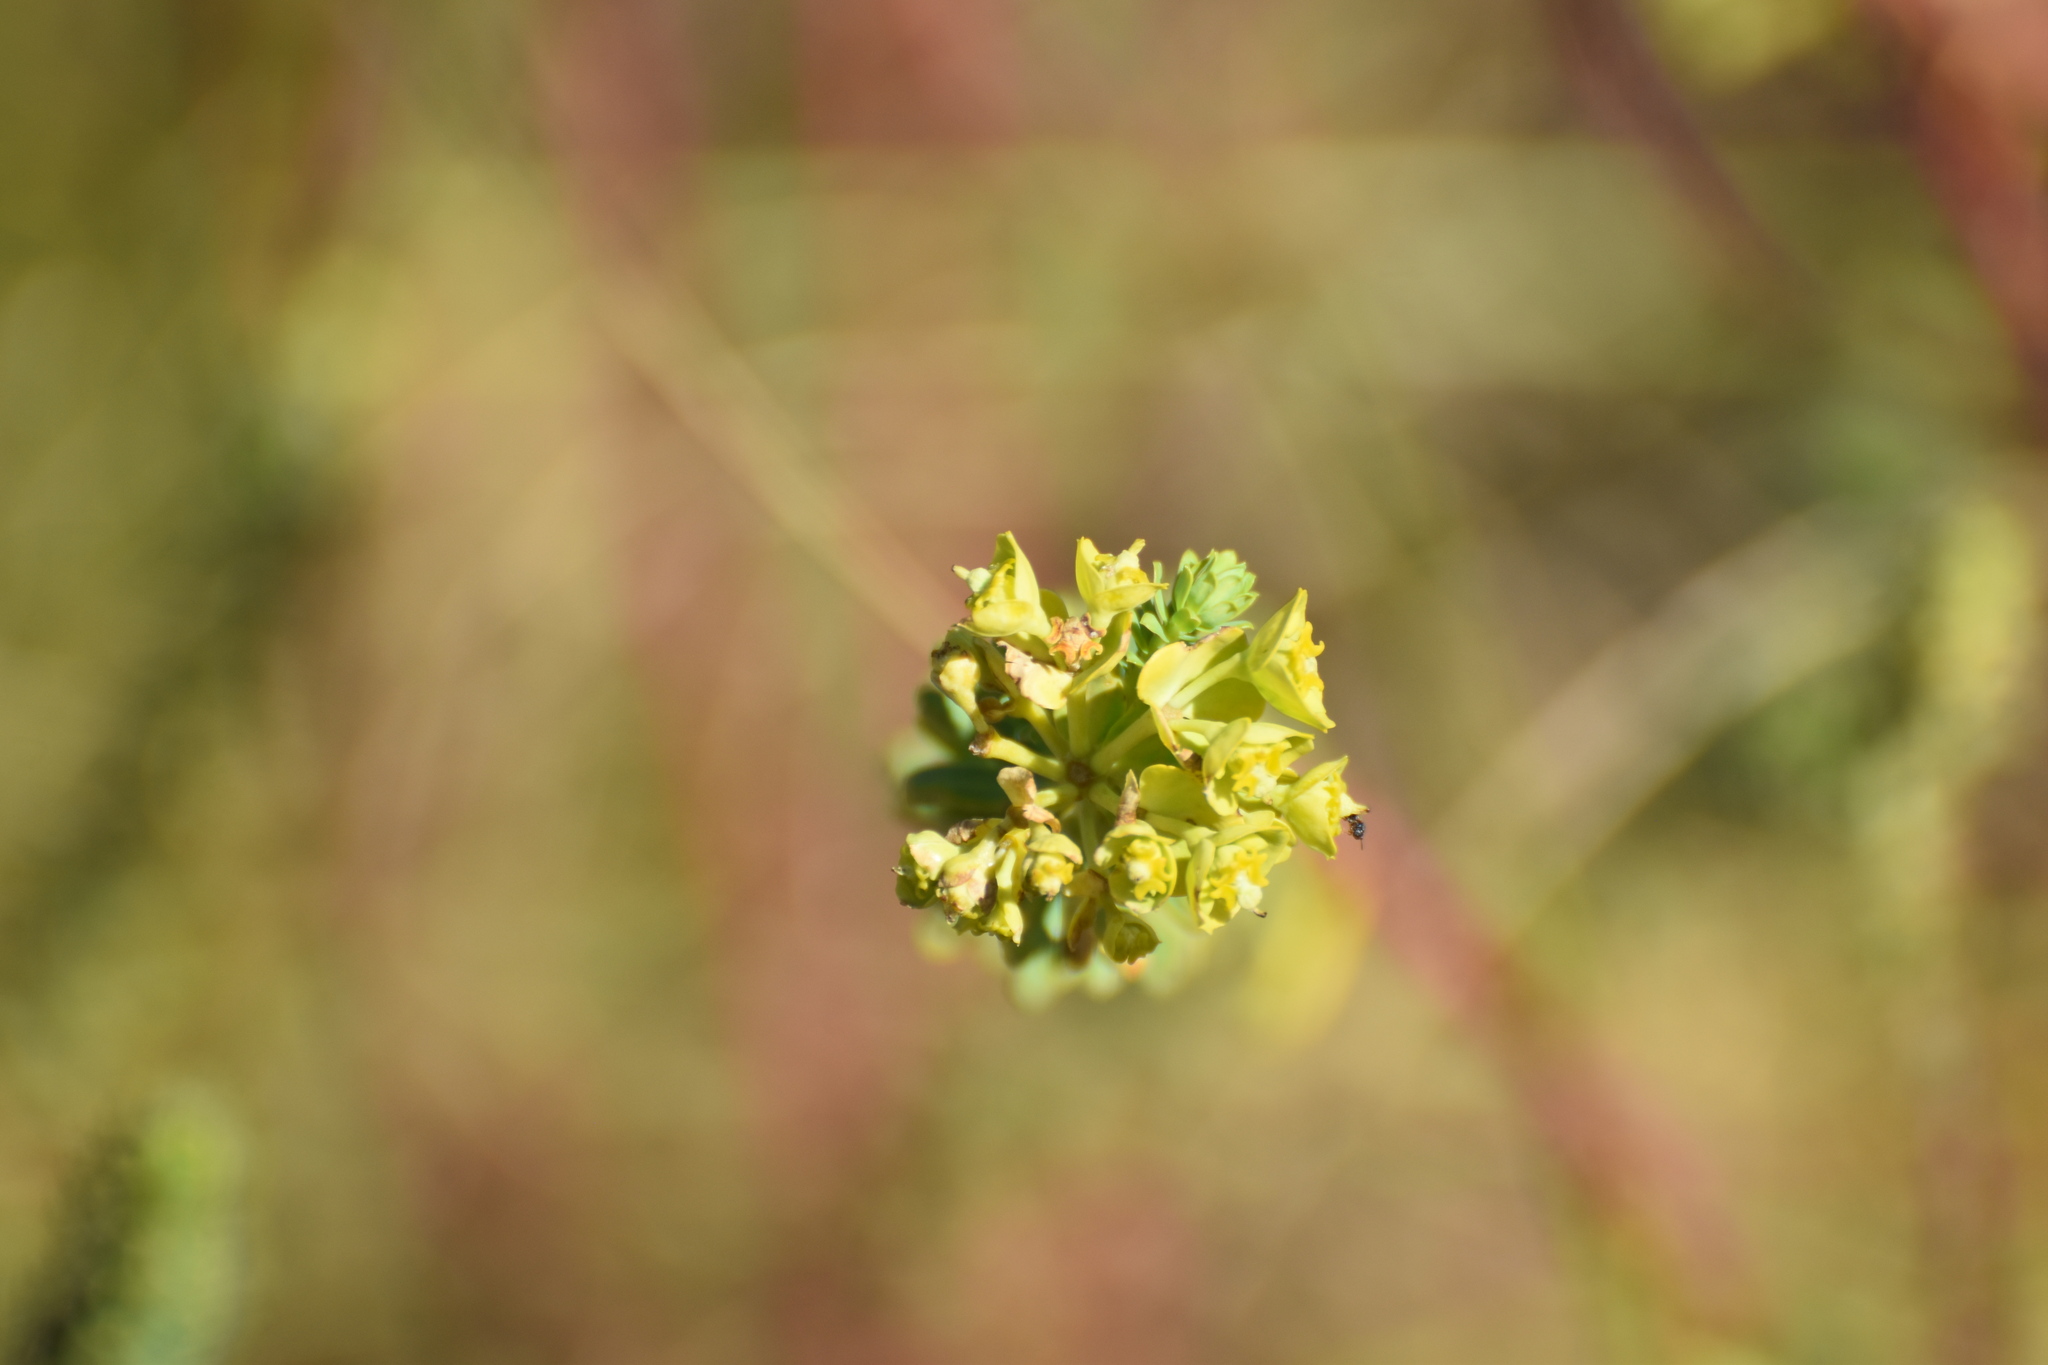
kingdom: Plantae
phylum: Tracheophyta
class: Magnoliopsida
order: Malpighiales
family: Euphorbiaceae
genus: Euphorbia
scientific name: Euphorbia natalensis
